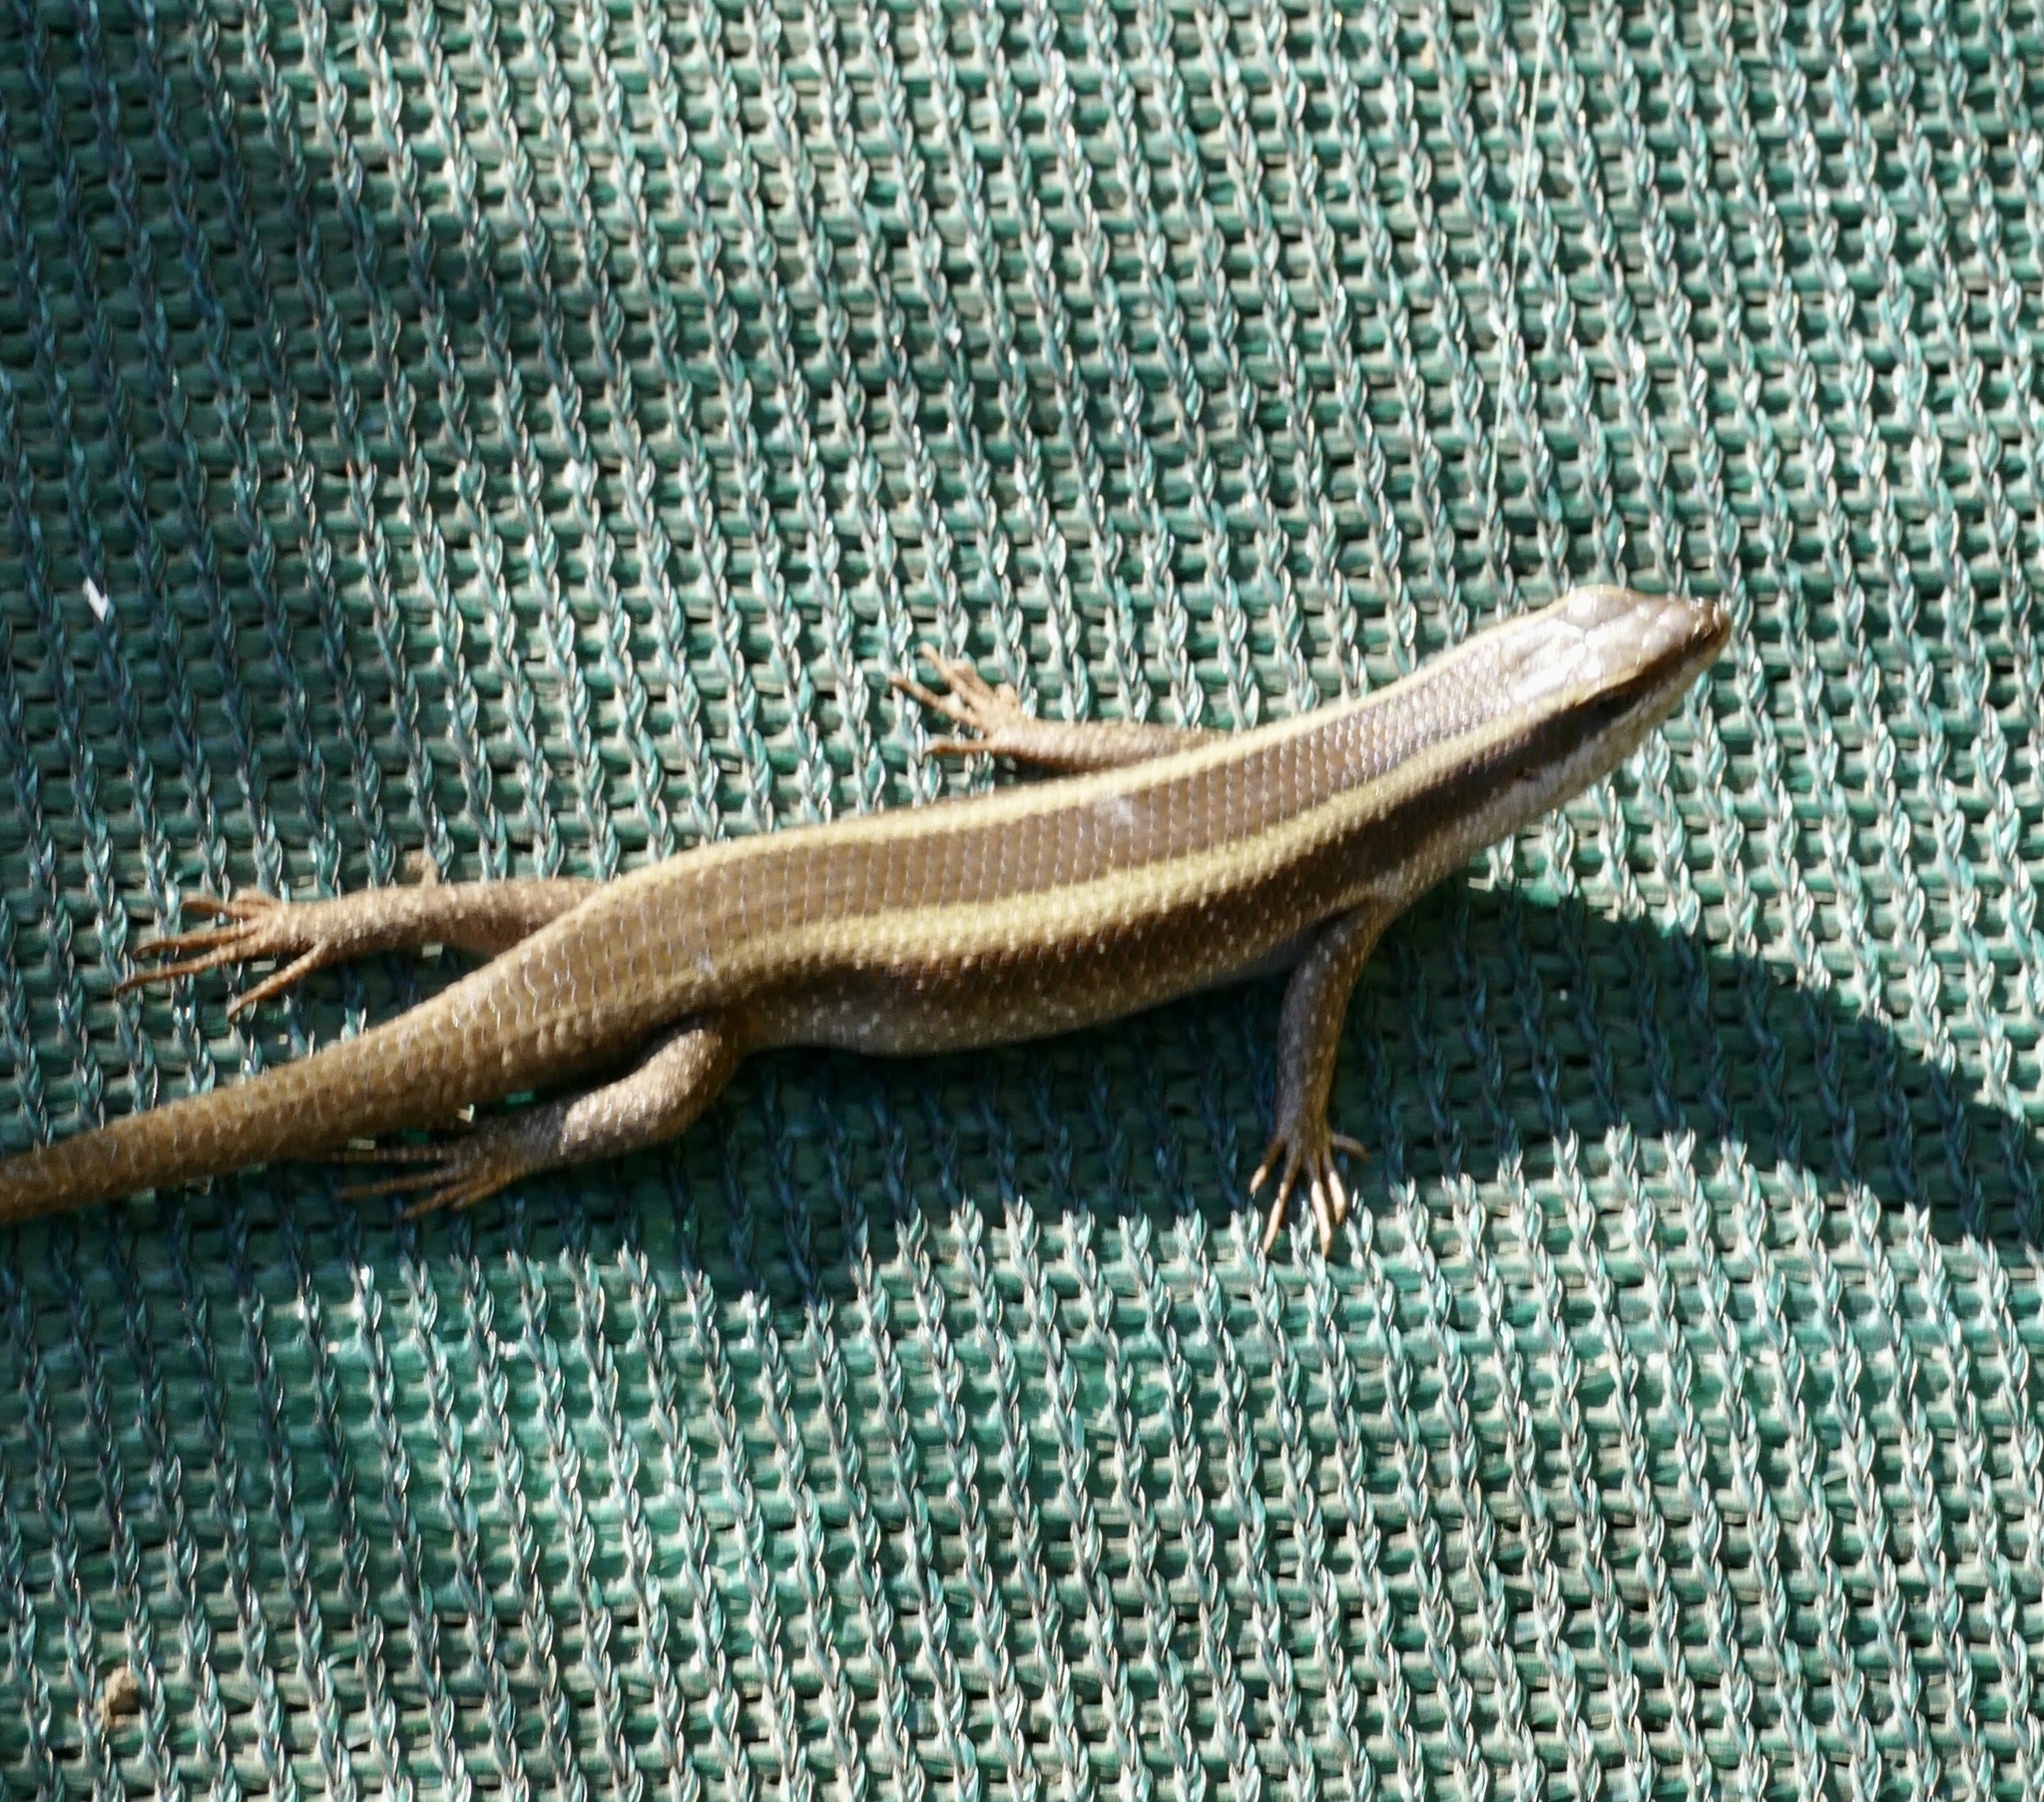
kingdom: Animalia
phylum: Chordata
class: Squamata
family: Scincidae
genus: Trachylepis
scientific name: Trachylepis striata
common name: African striped mabuya
